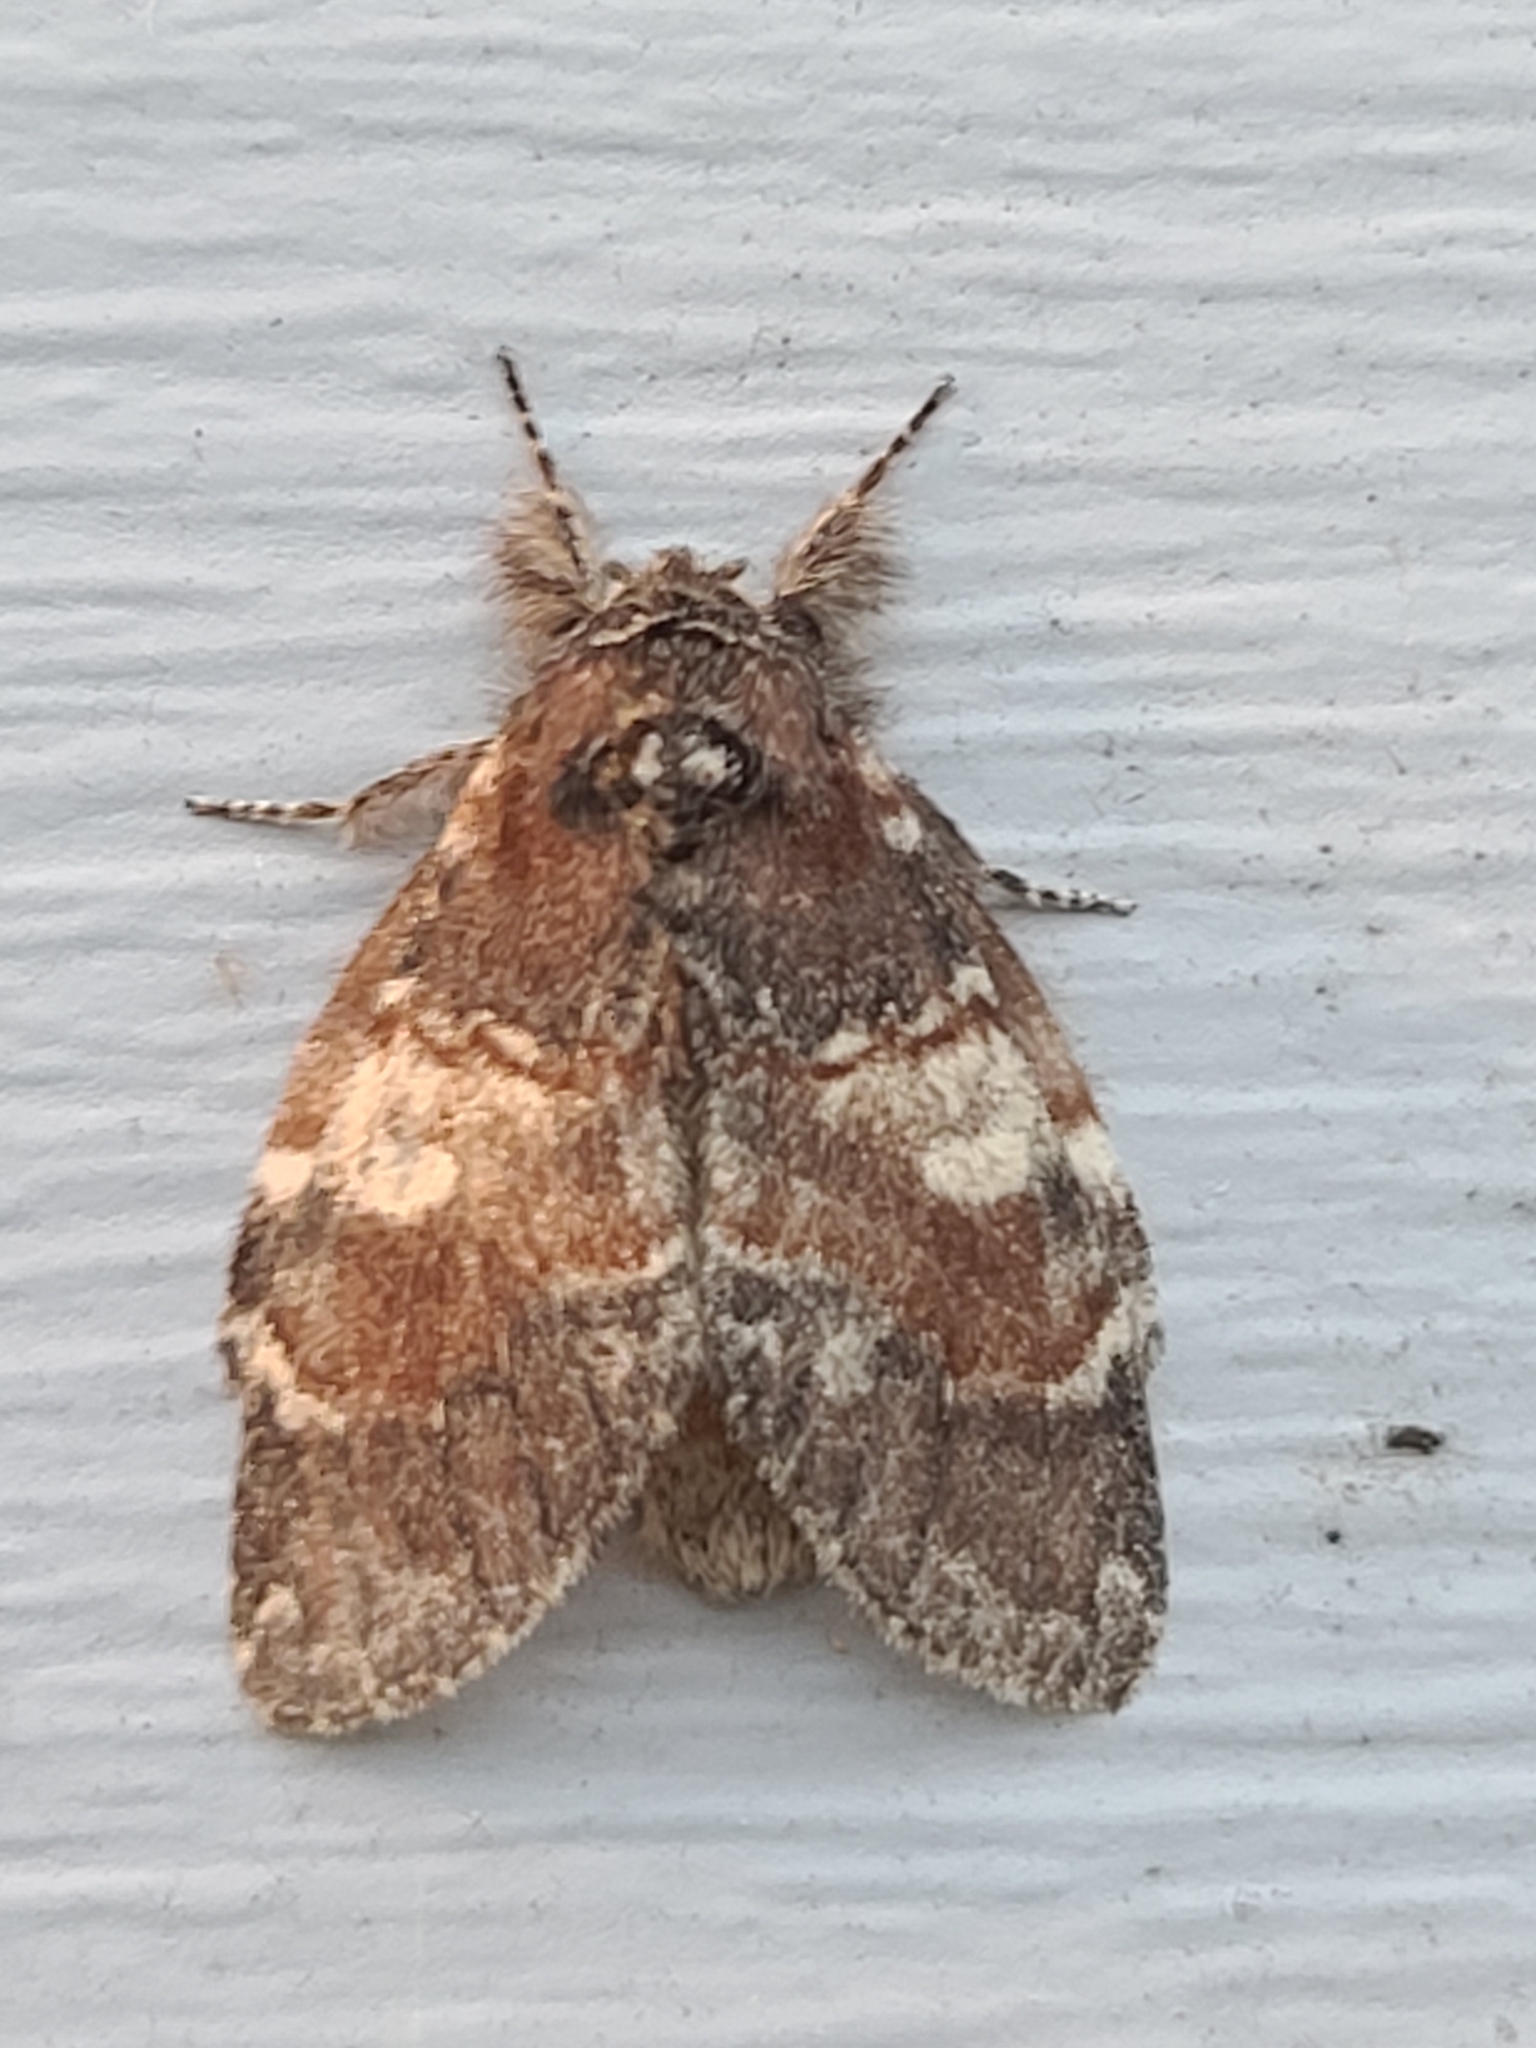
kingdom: Animalia
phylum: Arthropoda
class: Insecta
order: Lepidoptera
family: Notodontidae
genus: Peridea
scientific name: Peridea ferruginea
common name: Chocolate prominent
